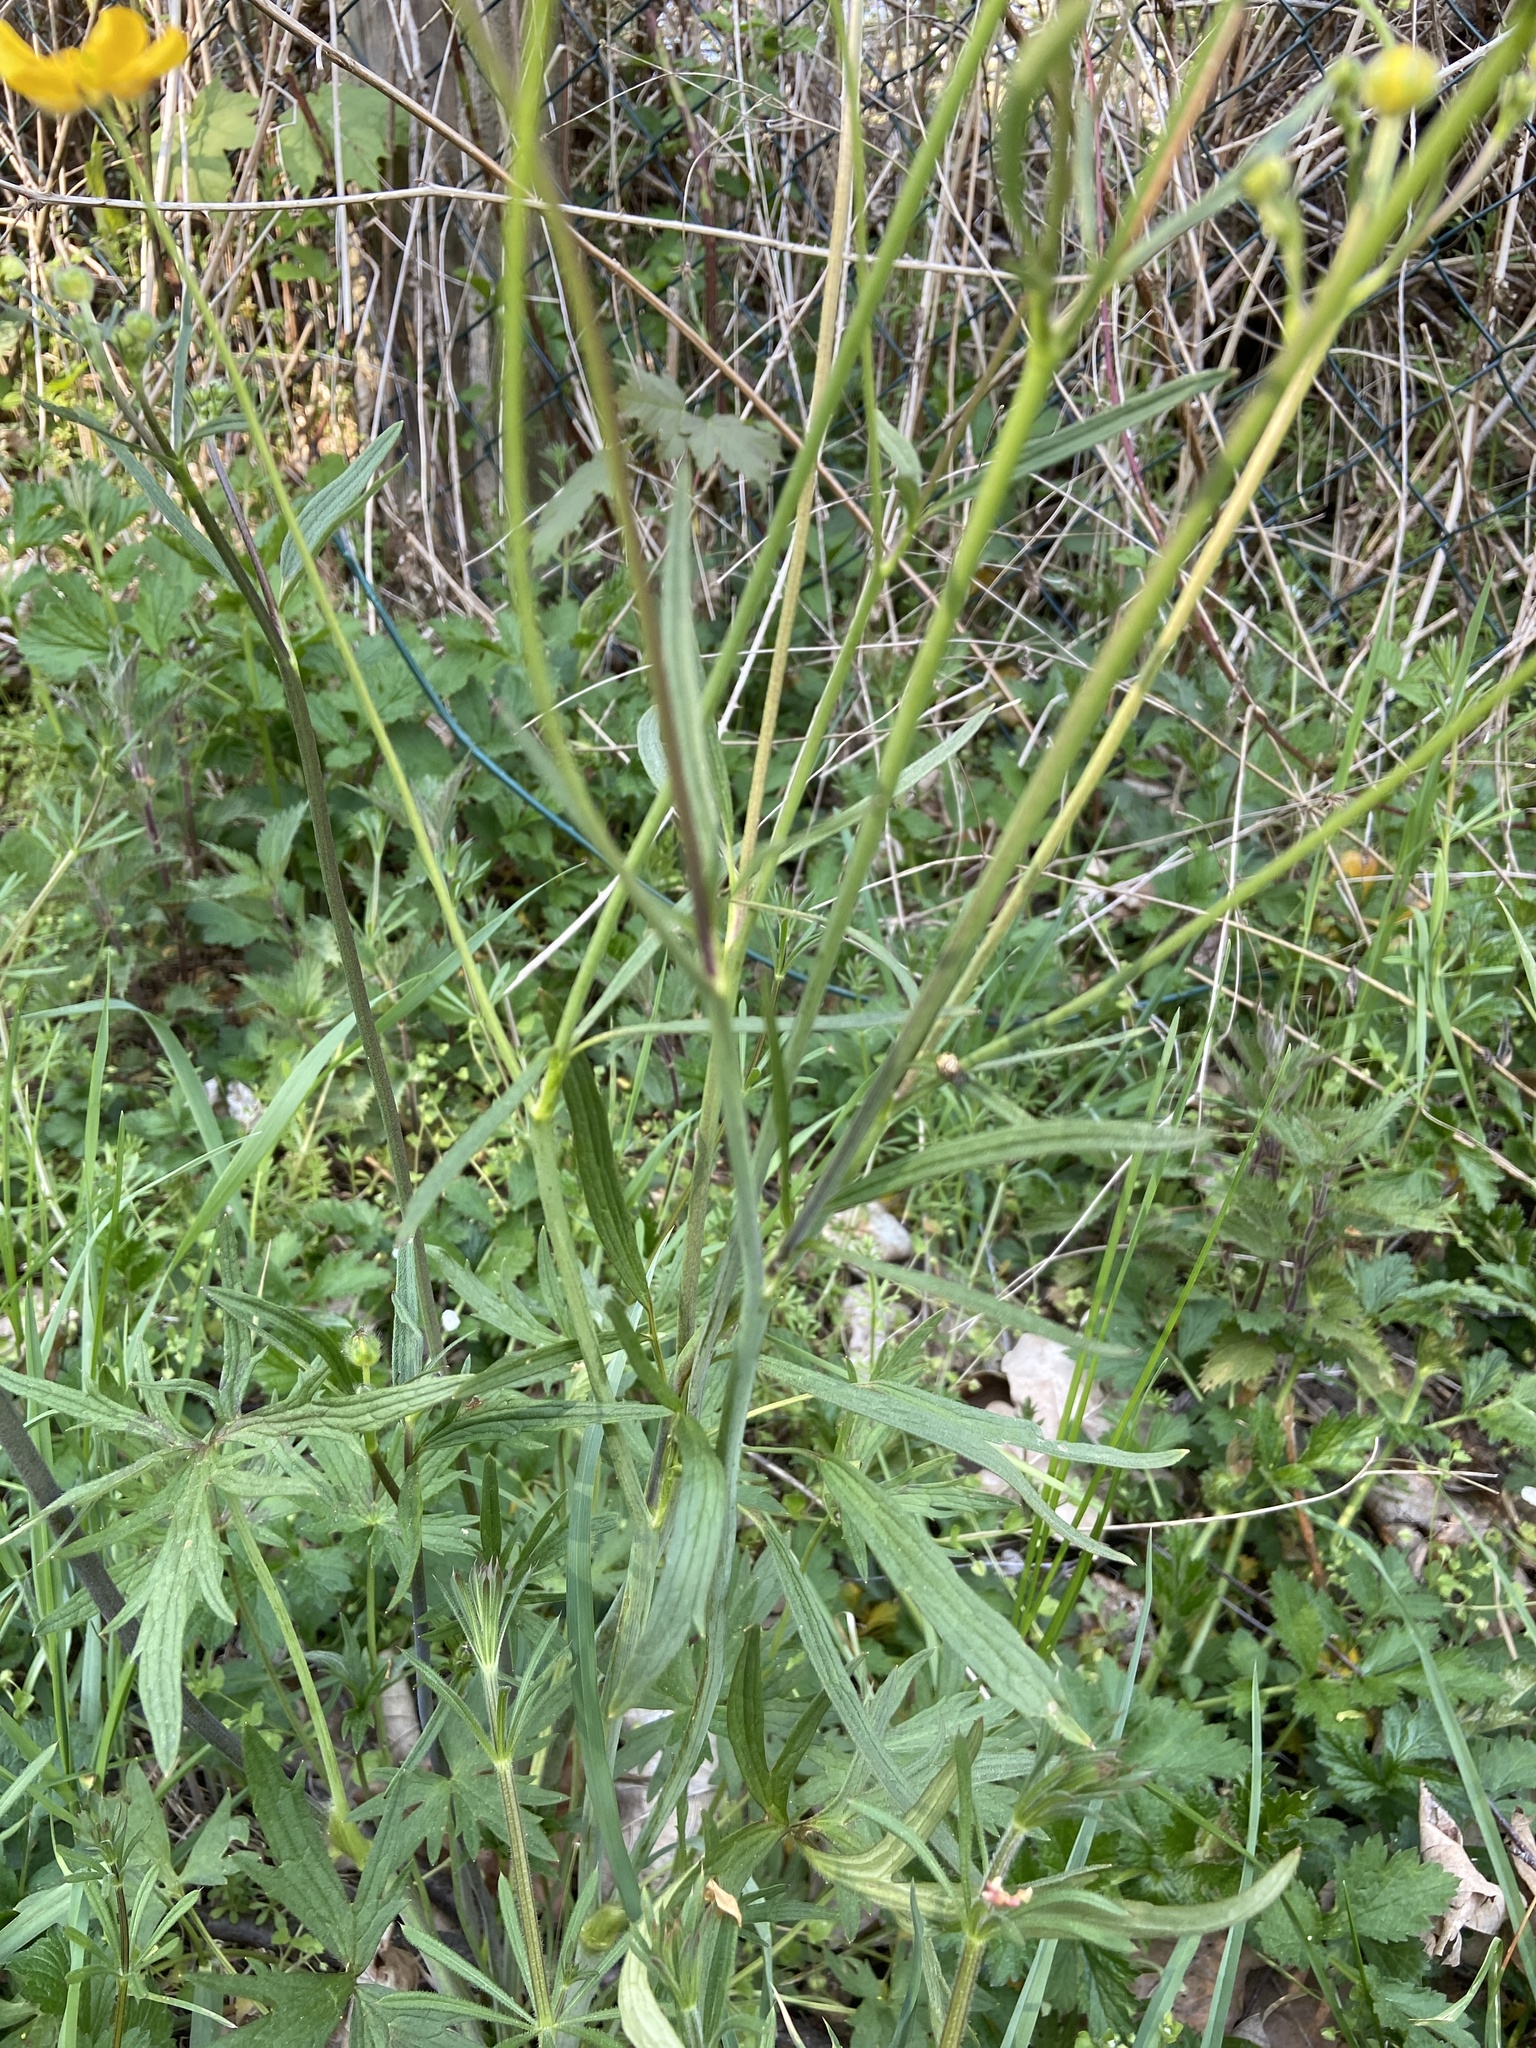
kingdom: Plantae
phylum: Tracheophyta
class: Magnoliopsida
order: Ranunculales
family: Ranunculaceae
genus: Ranunculus
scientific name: Ranunculus acris
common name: Meadow buttercup
